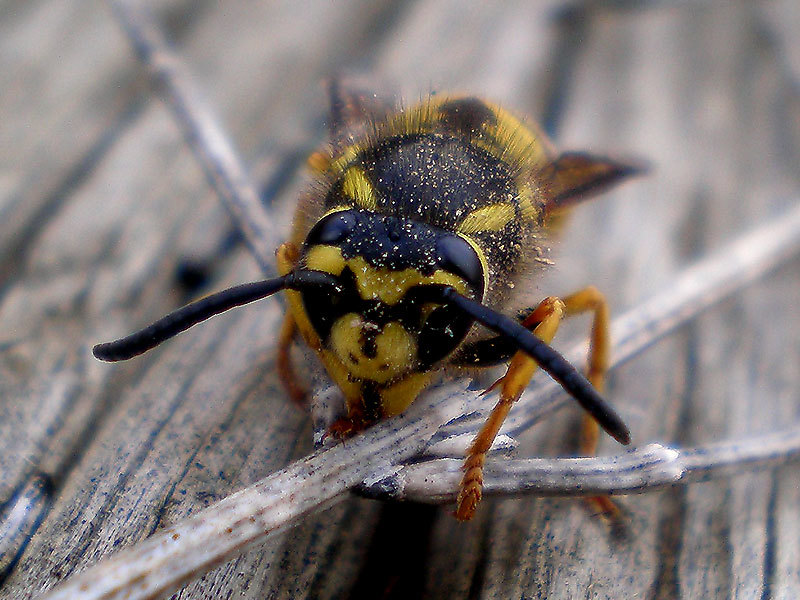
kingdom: Animalia
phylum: Arthropoda
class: Insecta
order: Hymenoptera
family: Vespidae
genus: Vespula
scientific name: Vespula germanica
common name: German wasp
